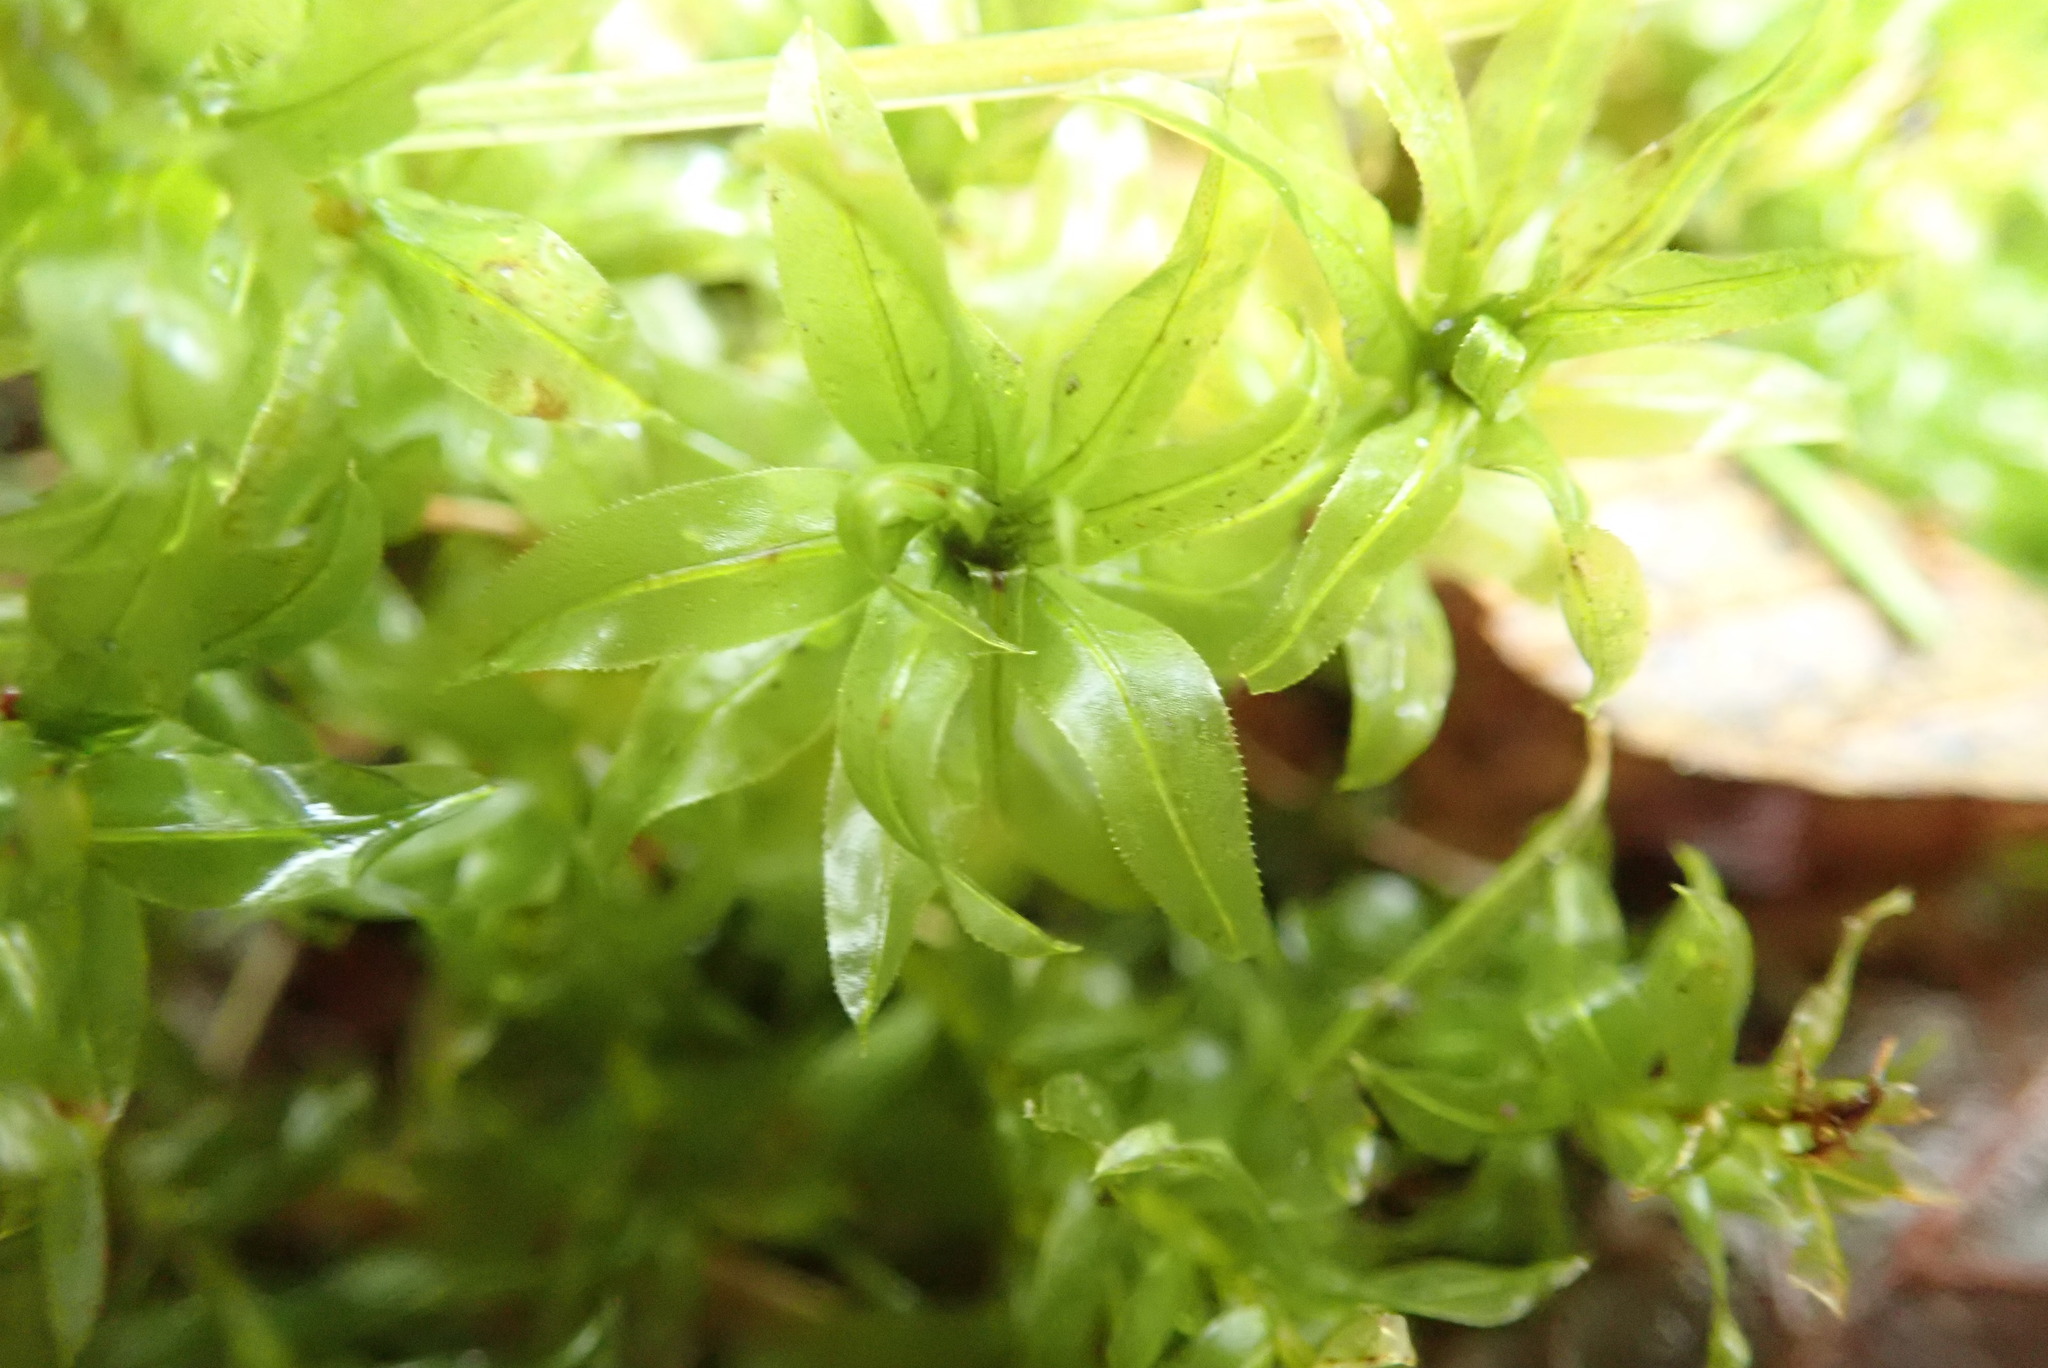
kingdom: Plantae
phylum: Bryophyta
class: Bryopsida
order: Bryales
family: Mniaceae
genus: Plagiomnium
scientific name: Plagiomnium insigne
